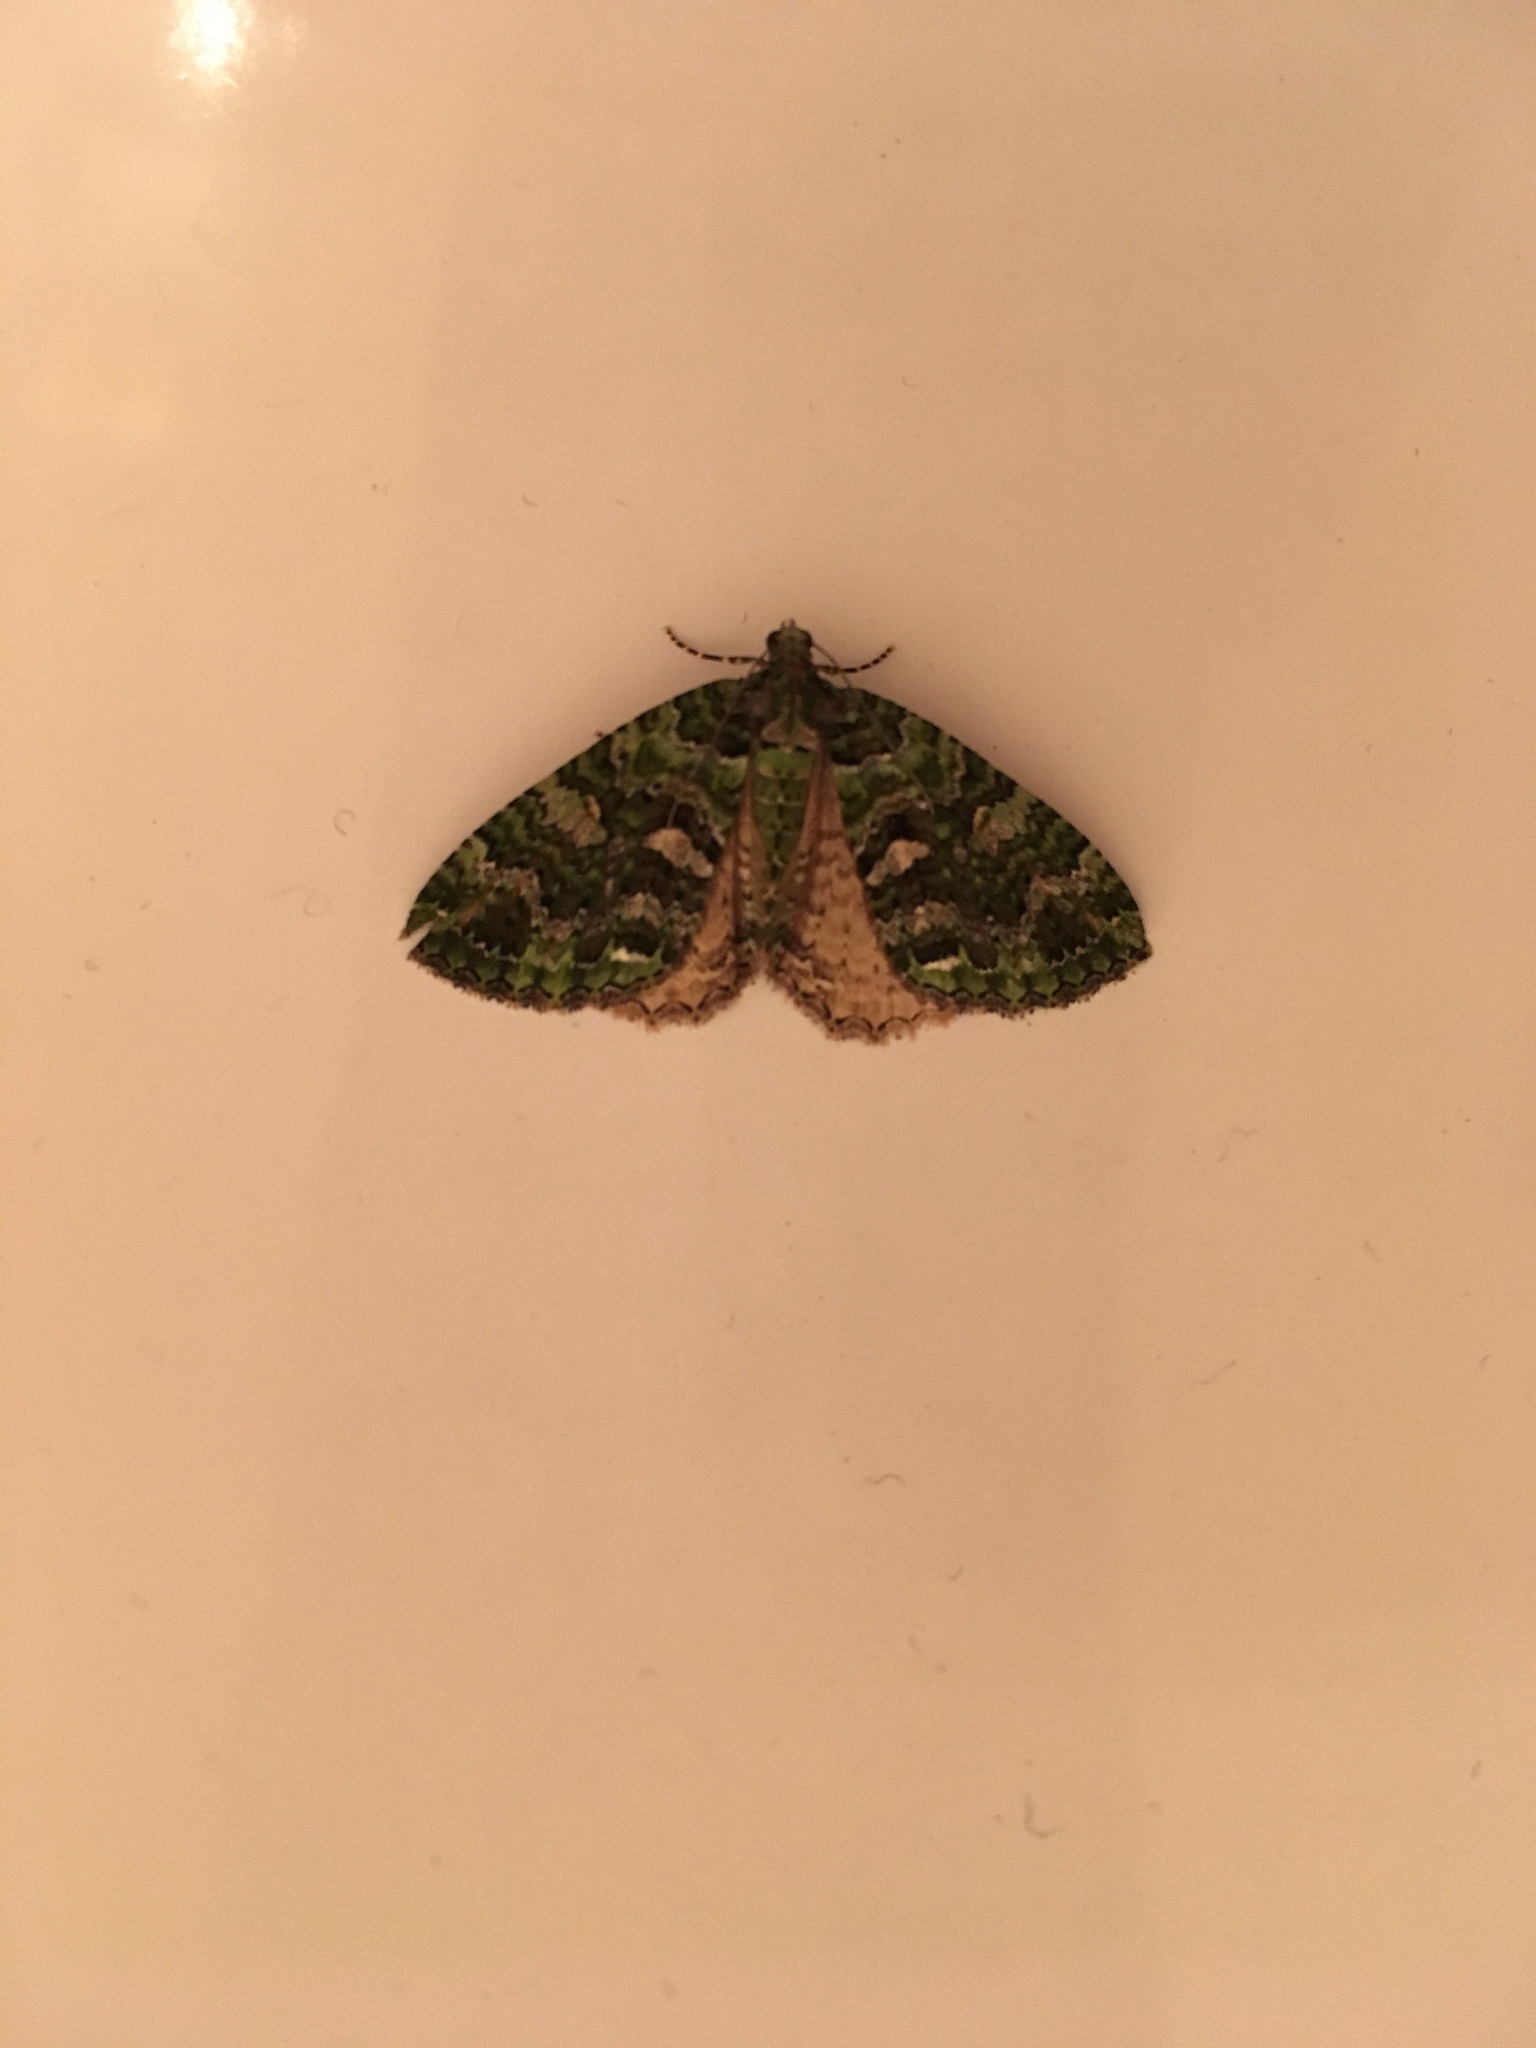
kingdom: Animalia
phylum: Arthropoda
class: Insecta
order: Lepidoptera
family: Geometridae
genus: Austrocidaria
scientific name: Austrocidaria similata
